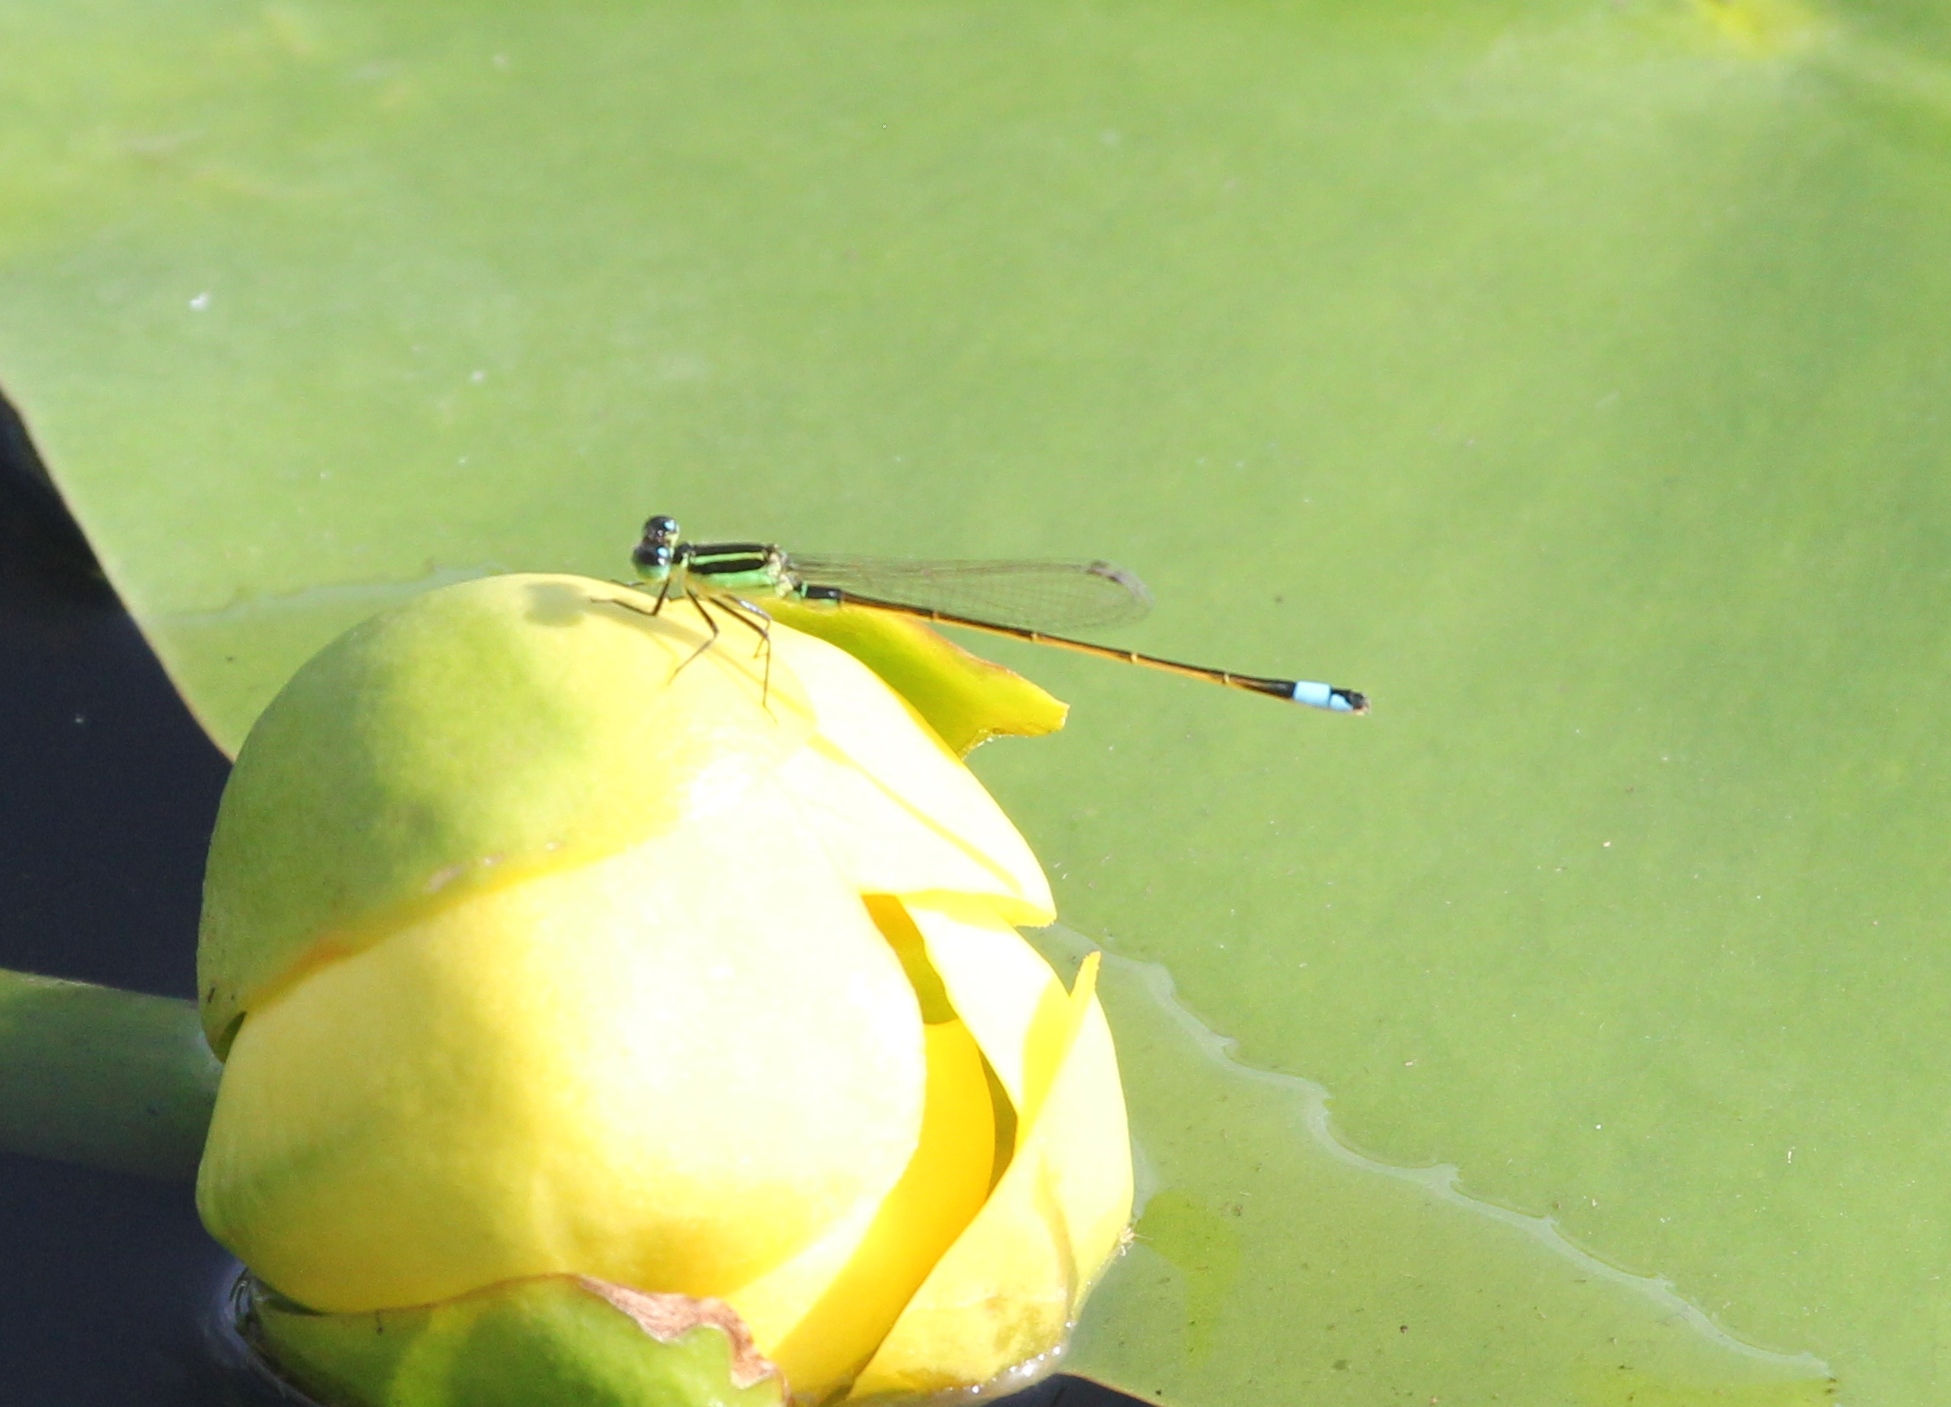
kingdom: Animalia
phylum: Arthropoda
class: Insecta
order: Odonata
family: Coenagrionidae
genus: Ischnura
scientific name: Ischnura ramburii
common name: Rambur's forktail
